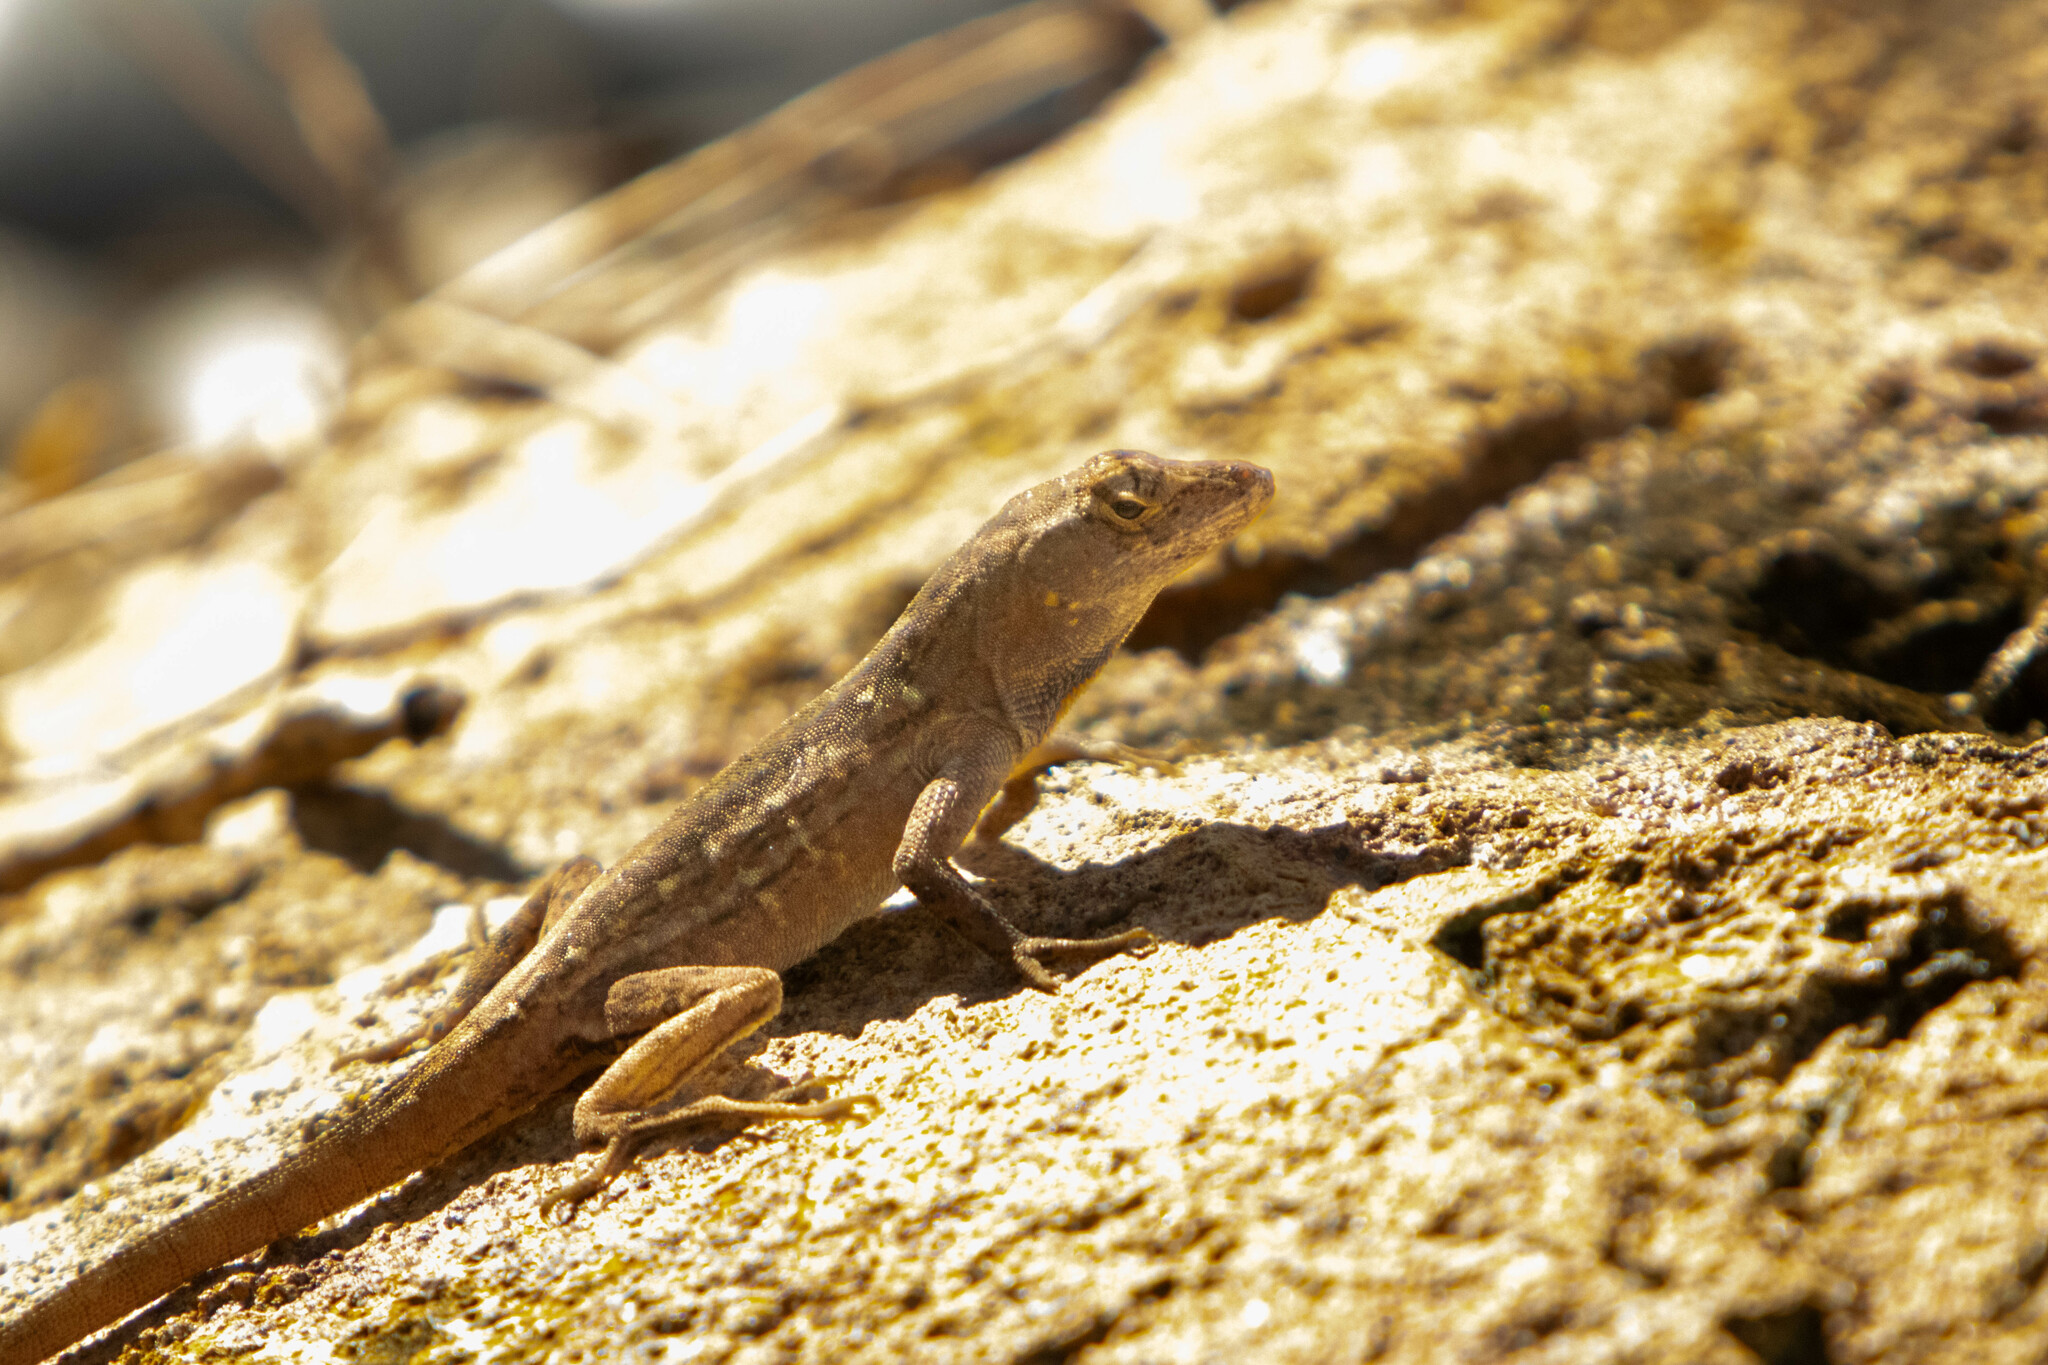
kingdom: Animalia
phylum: Chordata
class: Squamata
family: Dactyloidae
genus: Anolis
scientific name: Anolis sagrei
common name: Brown anole
